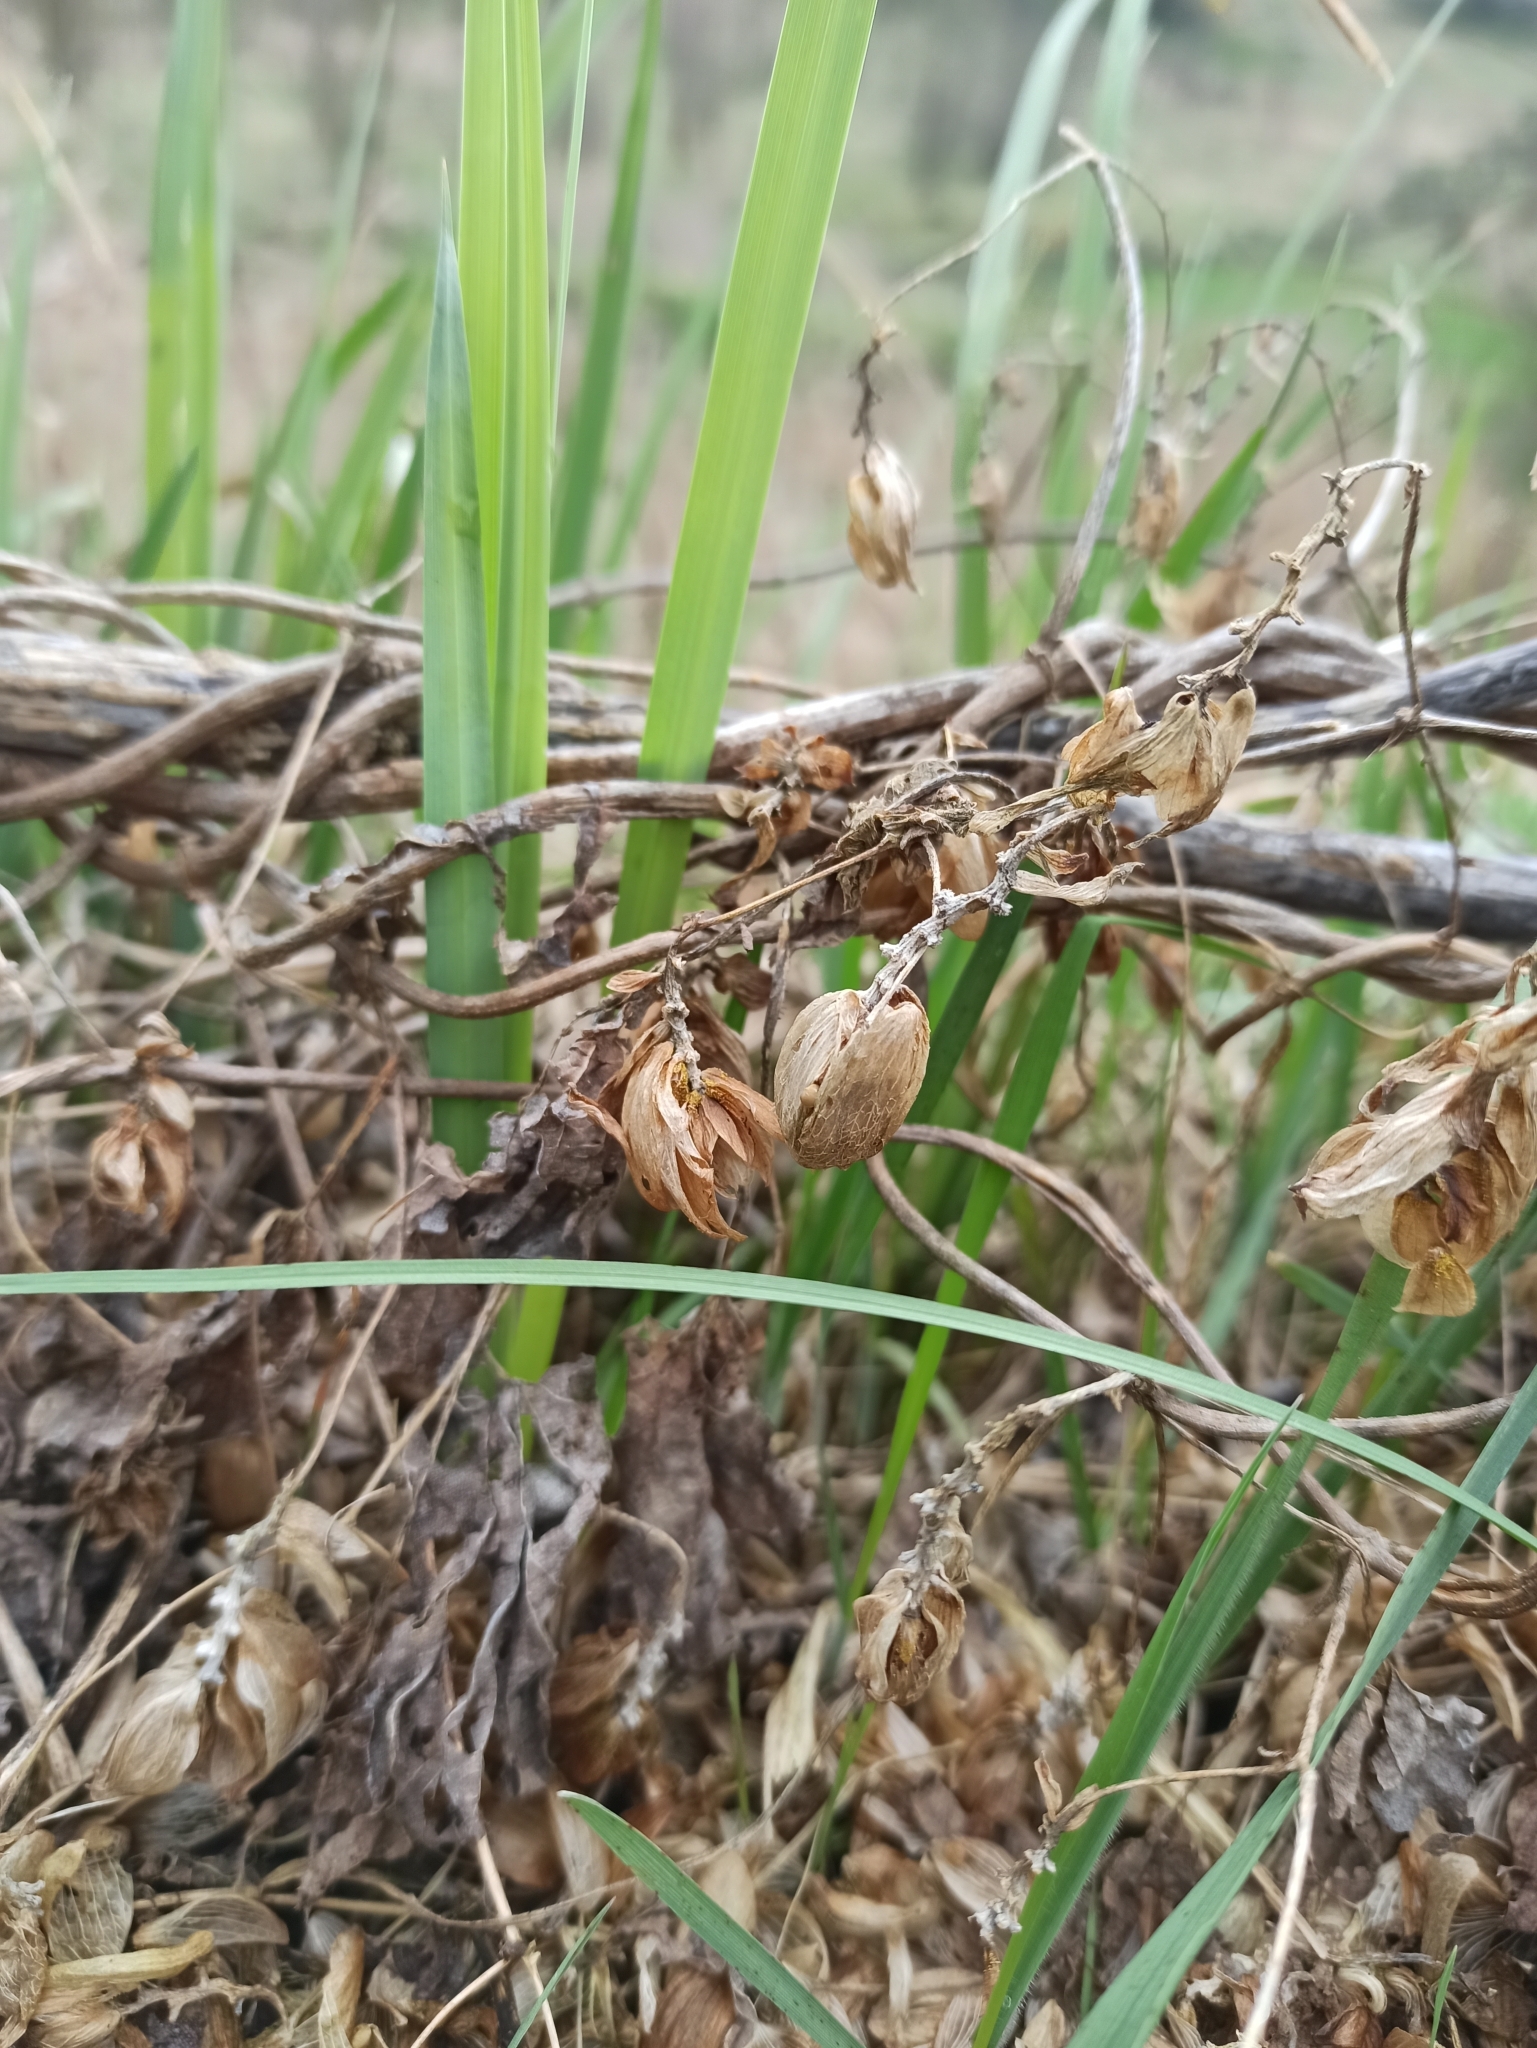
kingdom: Plantae
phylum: Tracheophyta
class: Magnoliopsida
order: Rosales
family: Cannabaceae
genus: Humulus
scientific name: Humulus lupulus
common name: Hop
